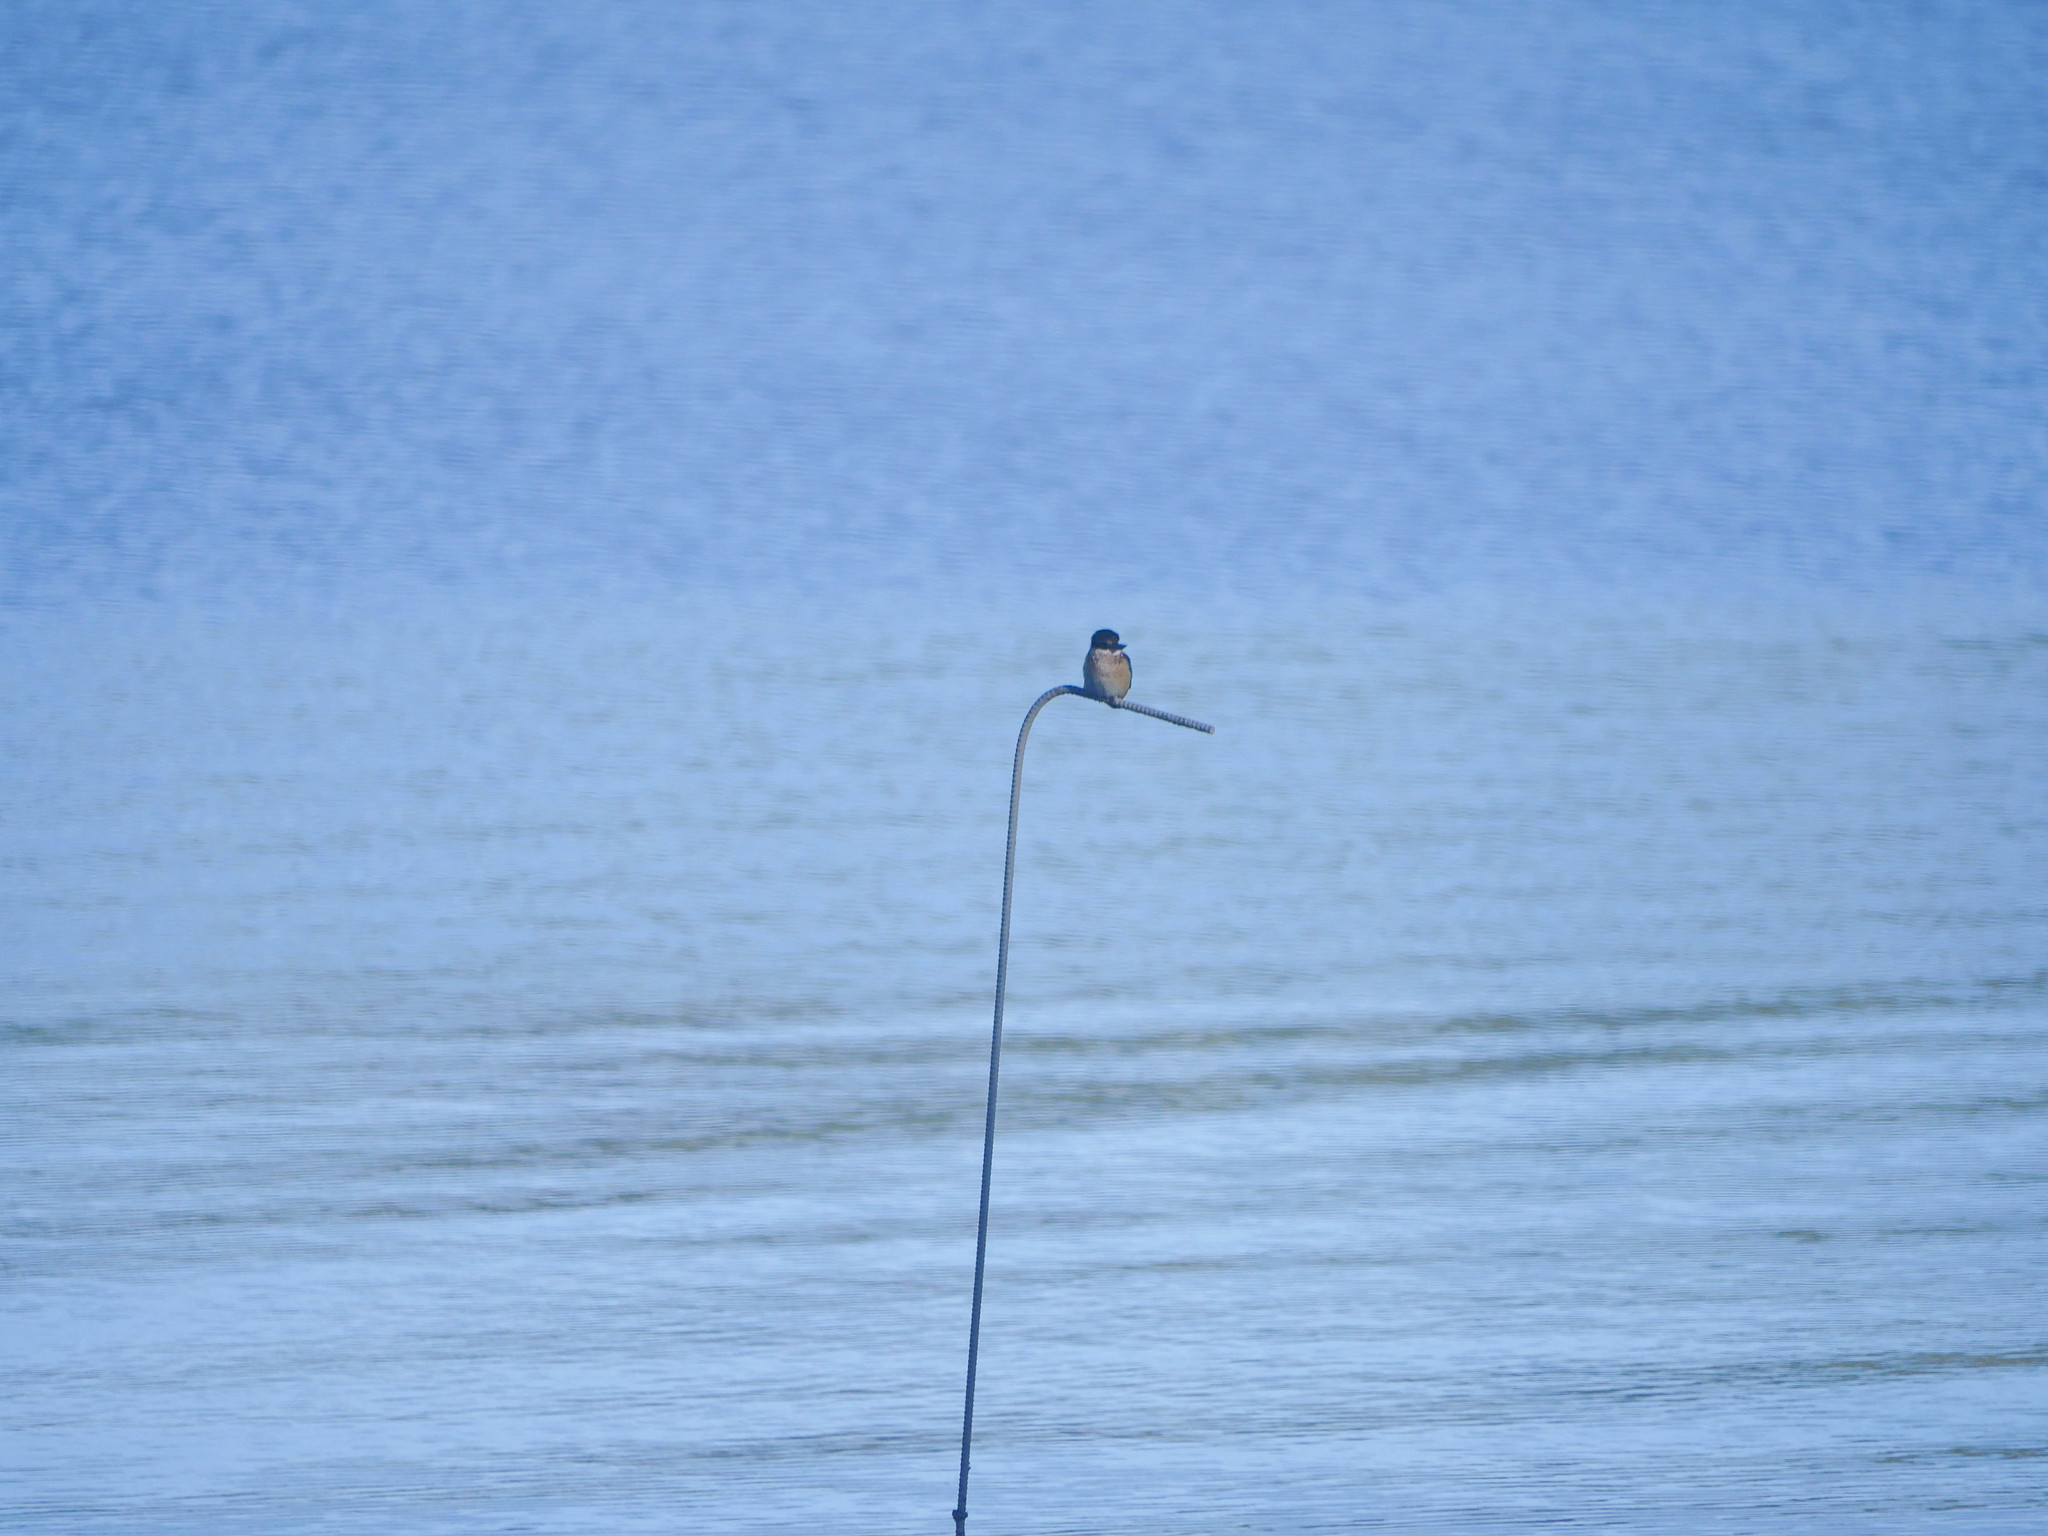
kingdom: Animalia
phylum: Chordata
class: Aves
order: Coraciiformes
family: Alcedinidae
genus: Todiramphus
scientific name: Todiramphus sanctus
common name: Sacred kingfisher
